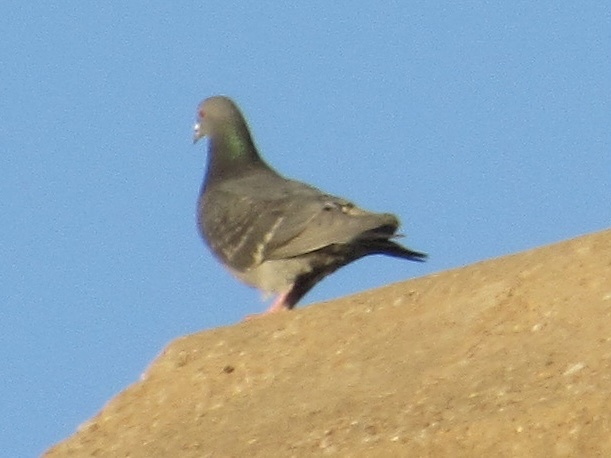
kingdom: Animalia
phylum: Chordata
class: Aves
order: Columbiformes
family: Columbidae
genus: Columba
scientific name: Columba livia
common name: Rock pigeon
